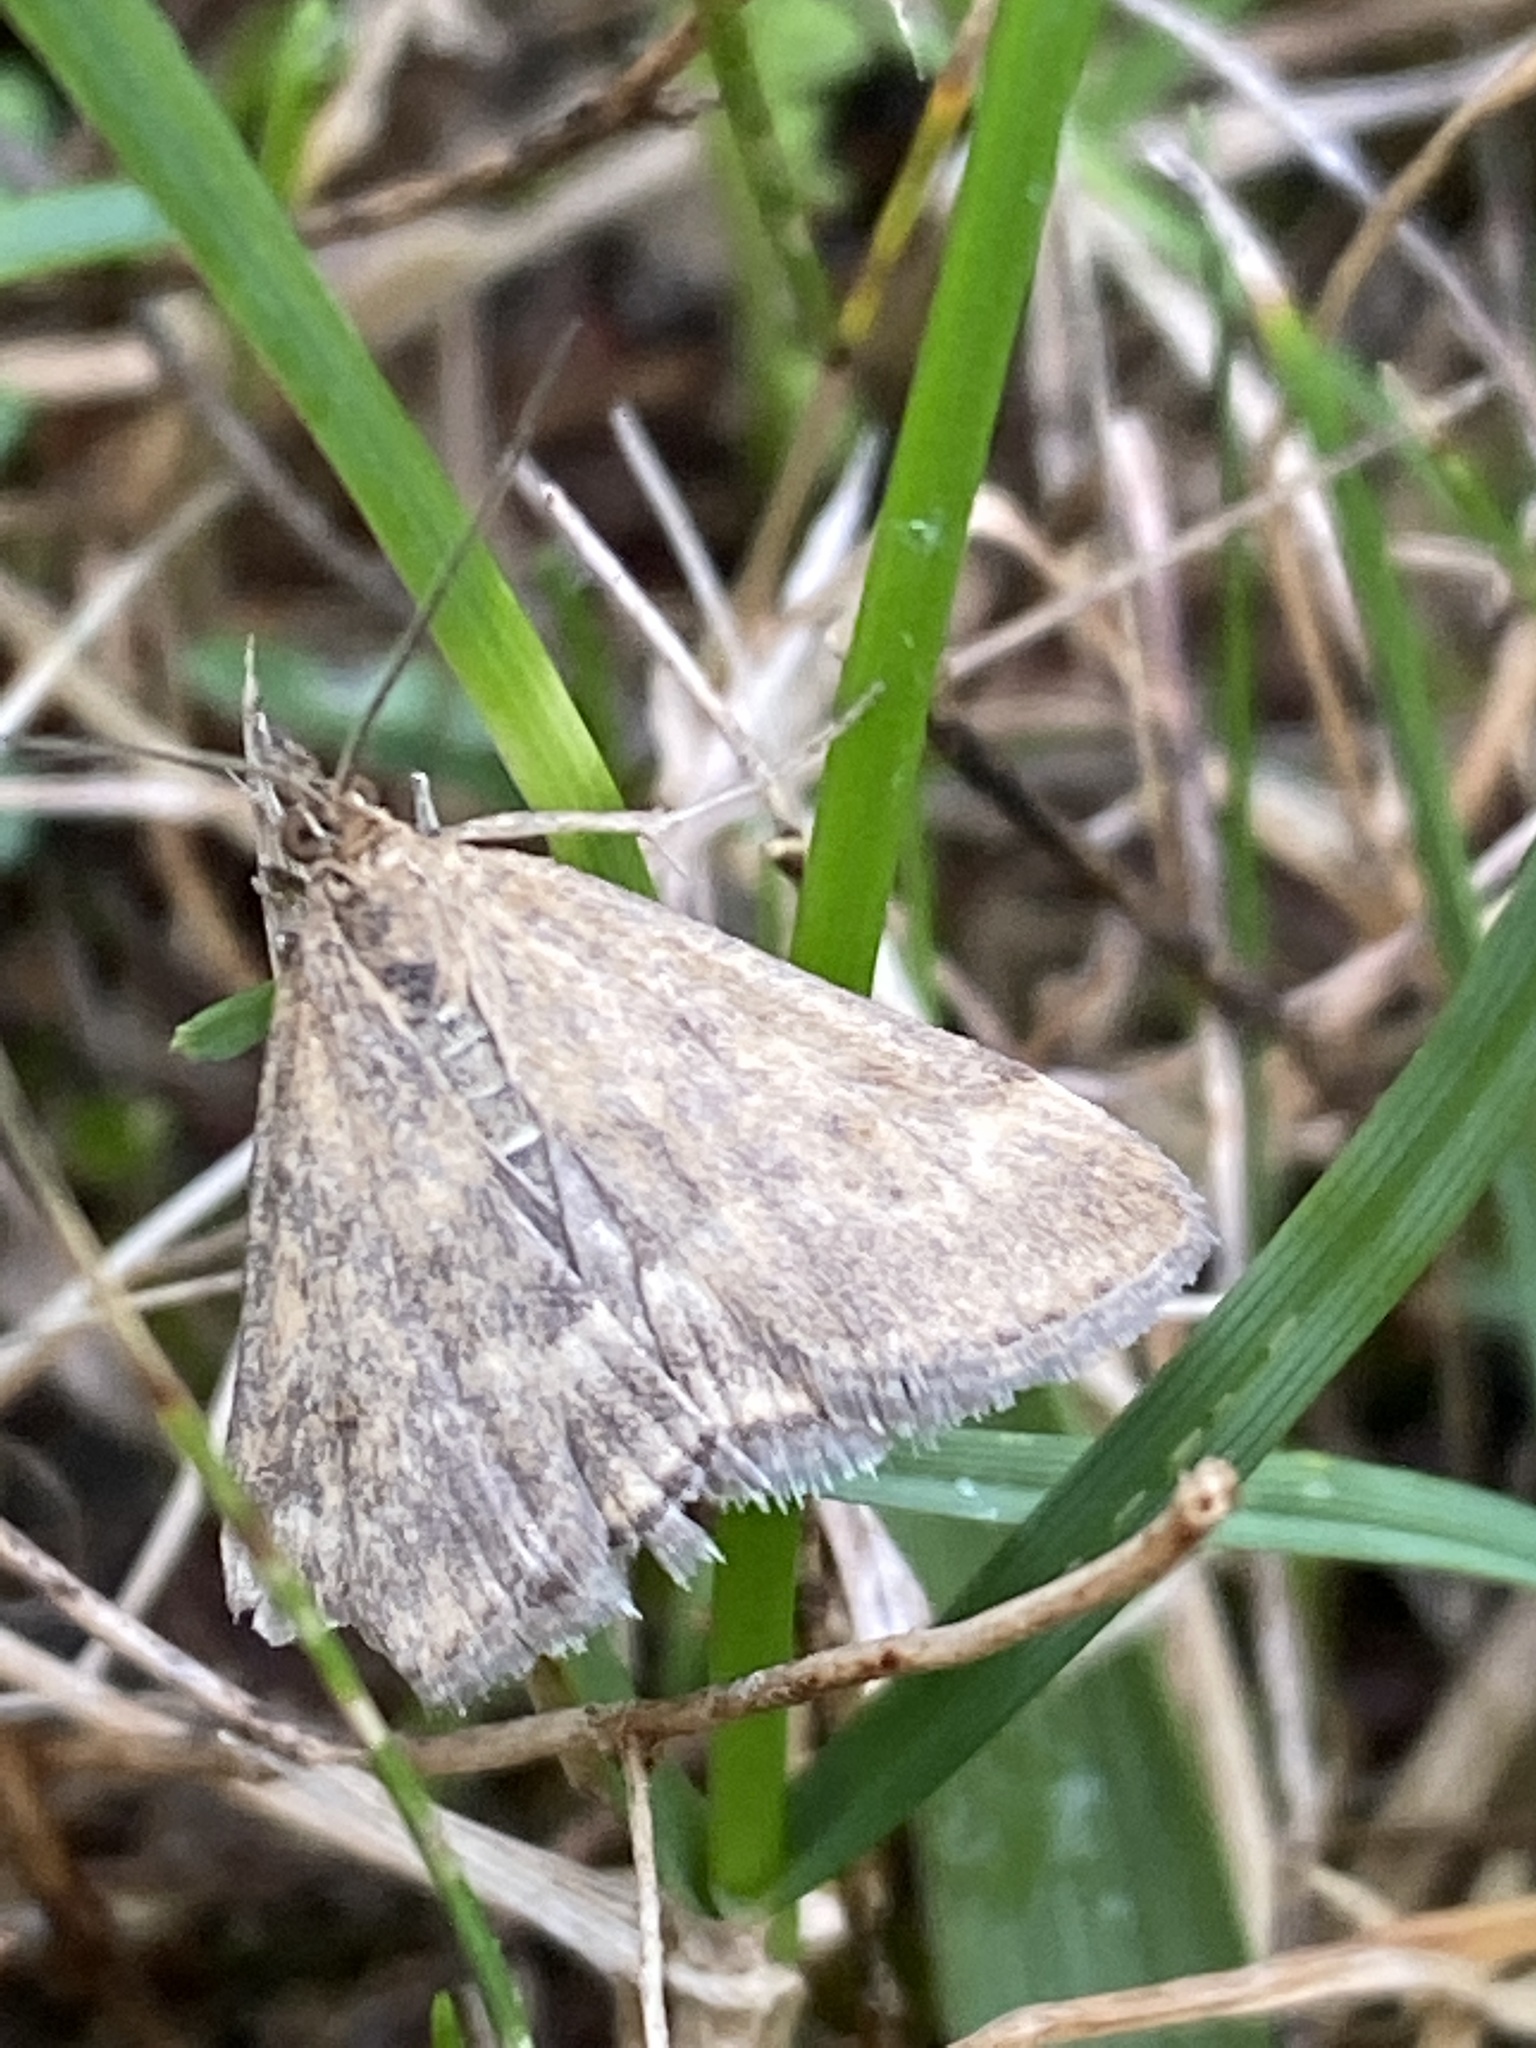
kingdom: Animalia
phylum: Arthropoda
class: Insecta
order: Lepidoptera
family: Crambidae
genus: Pyrausta
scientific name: Pyrausta despicata
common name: Straw-barred pearl
